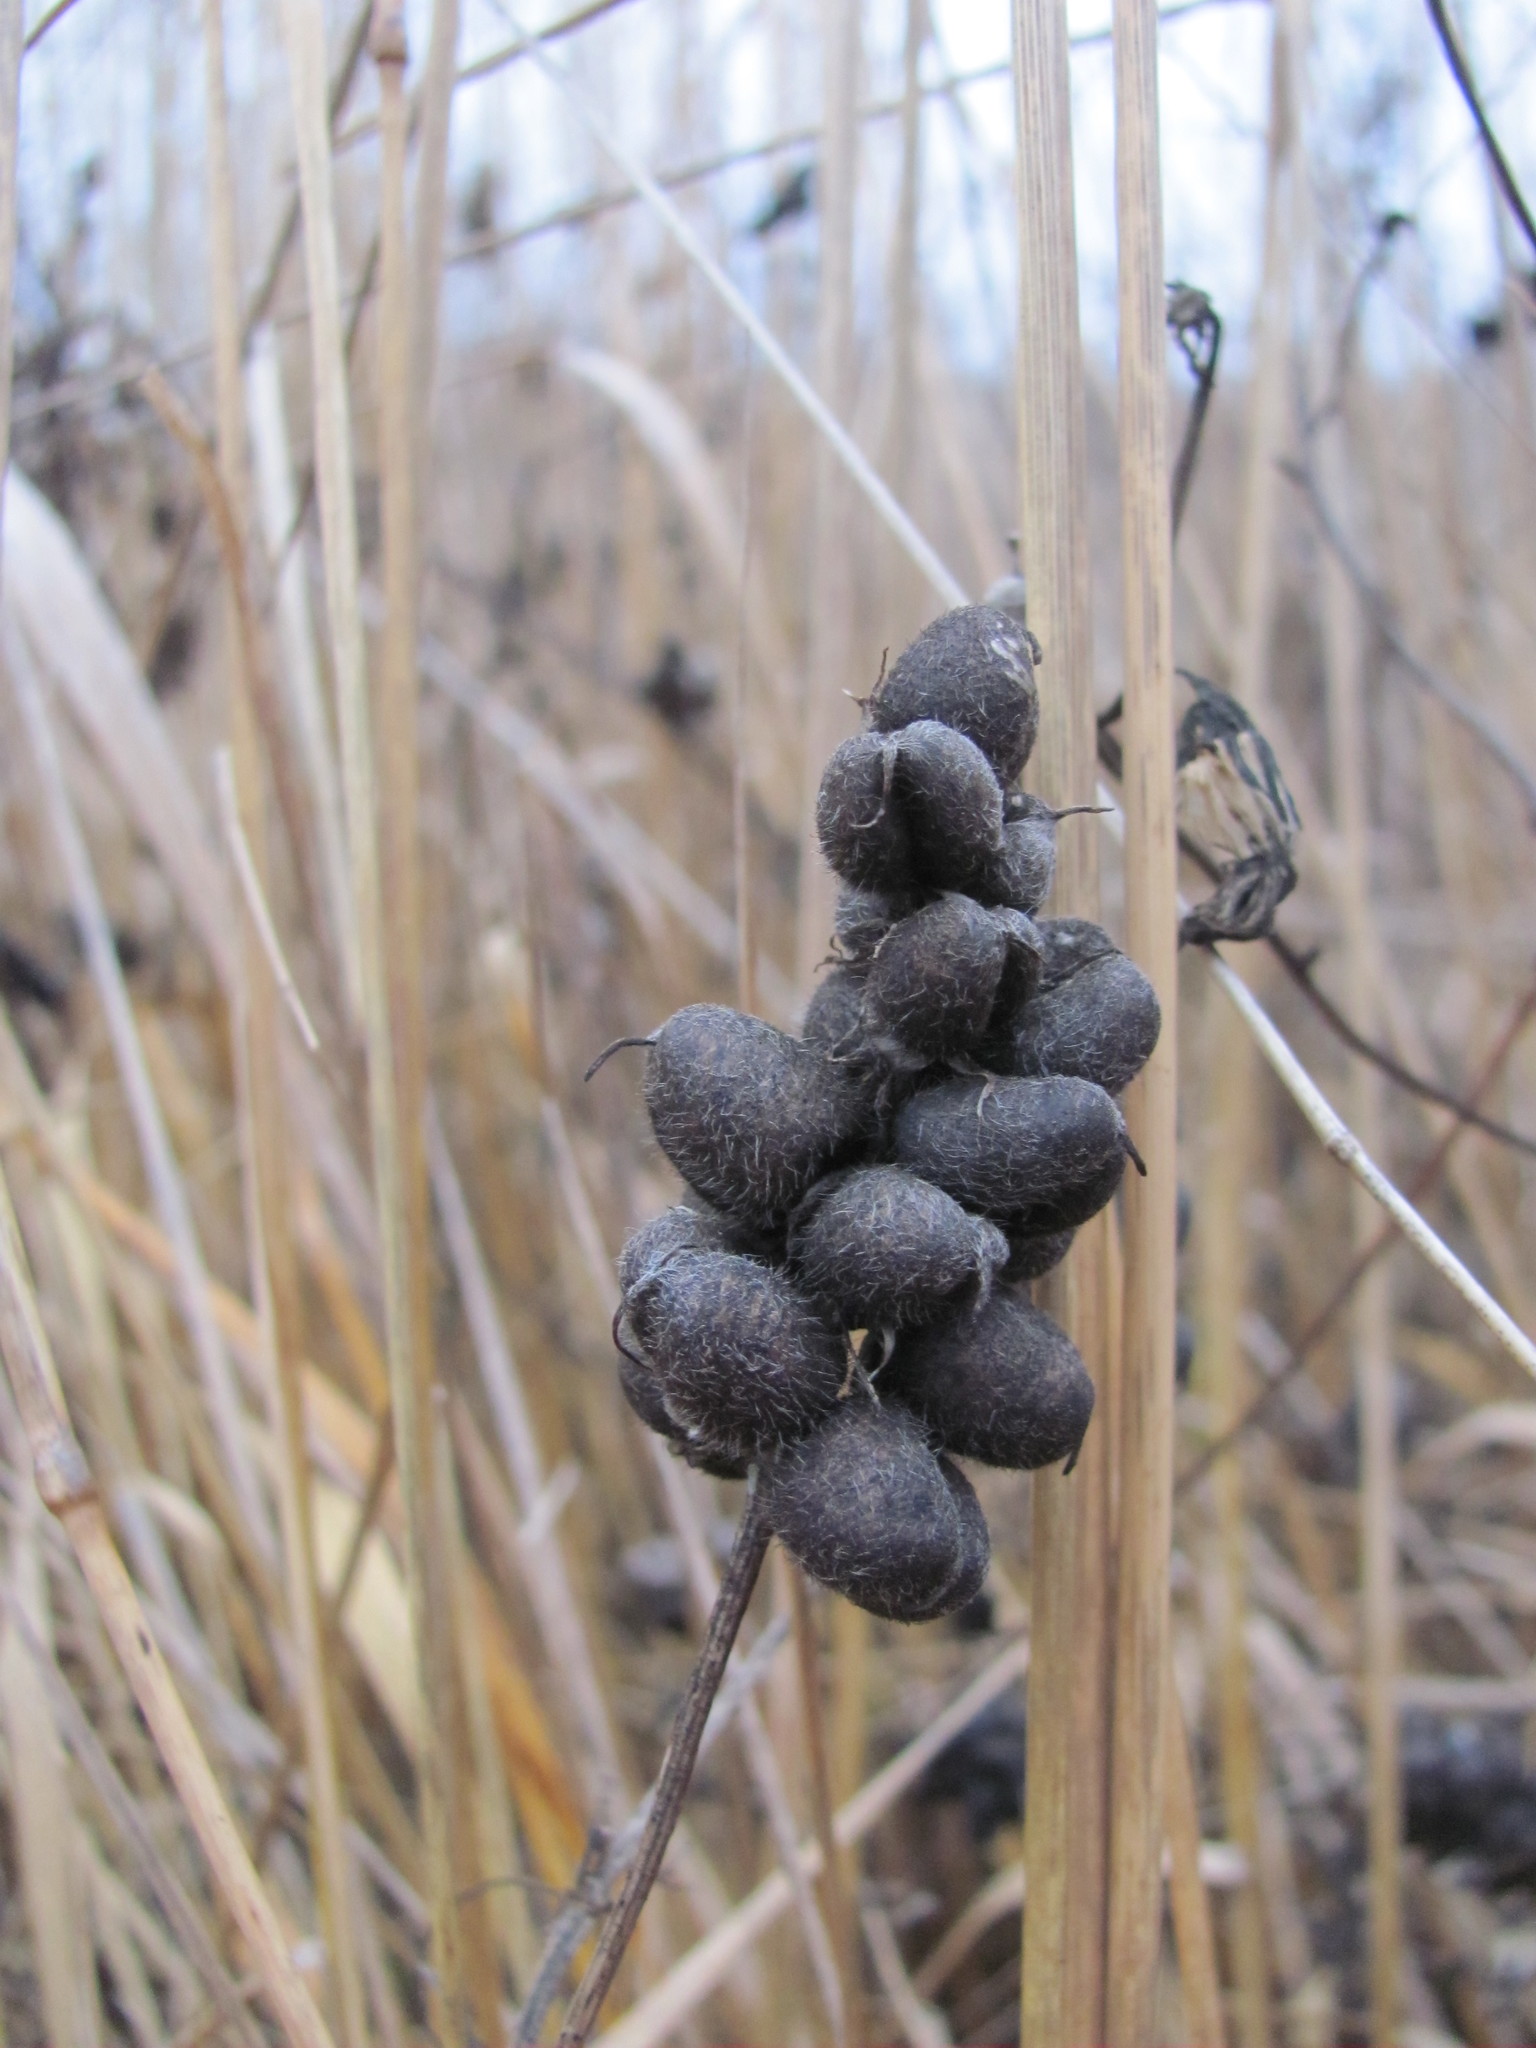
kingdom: Plantae
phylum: Tracheophyta
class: Magnoliopsida
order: Fabales
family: Fabaceae
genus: Astragalus
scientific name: Astragalus cicer
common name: Chick-pea milk-vetch
